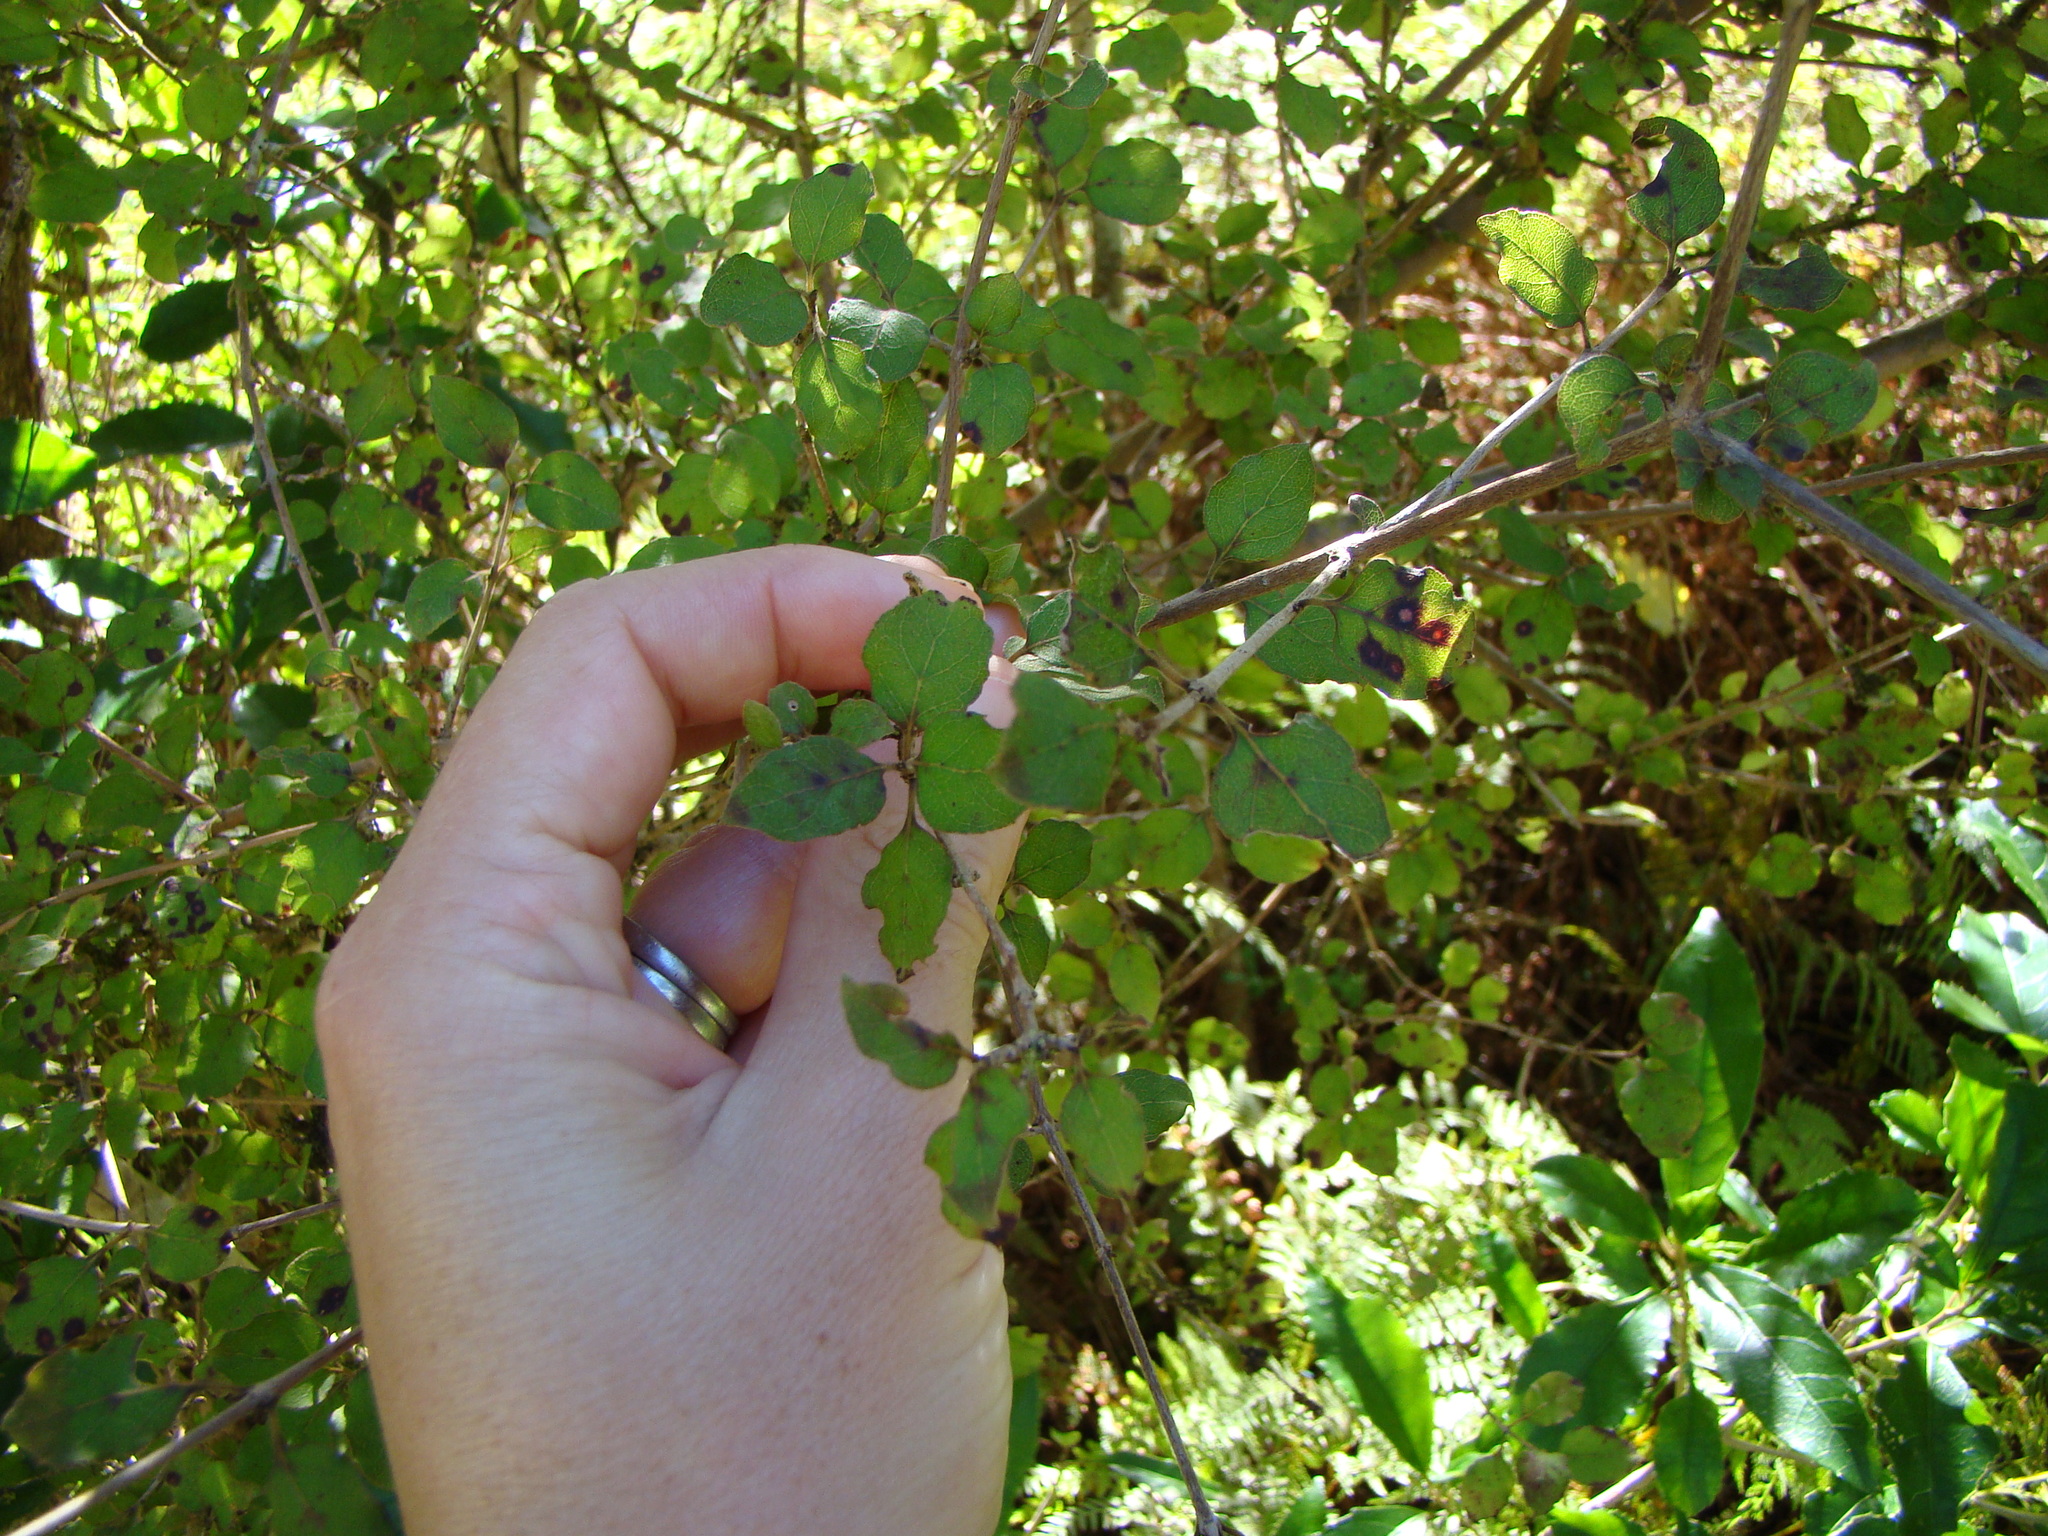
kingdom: Plantae
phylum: Tracheophyta
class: Magnoliopsida
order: Gentianales
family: Rubiaceae
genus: Coprosma
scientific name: Coprosma rotundifolia
